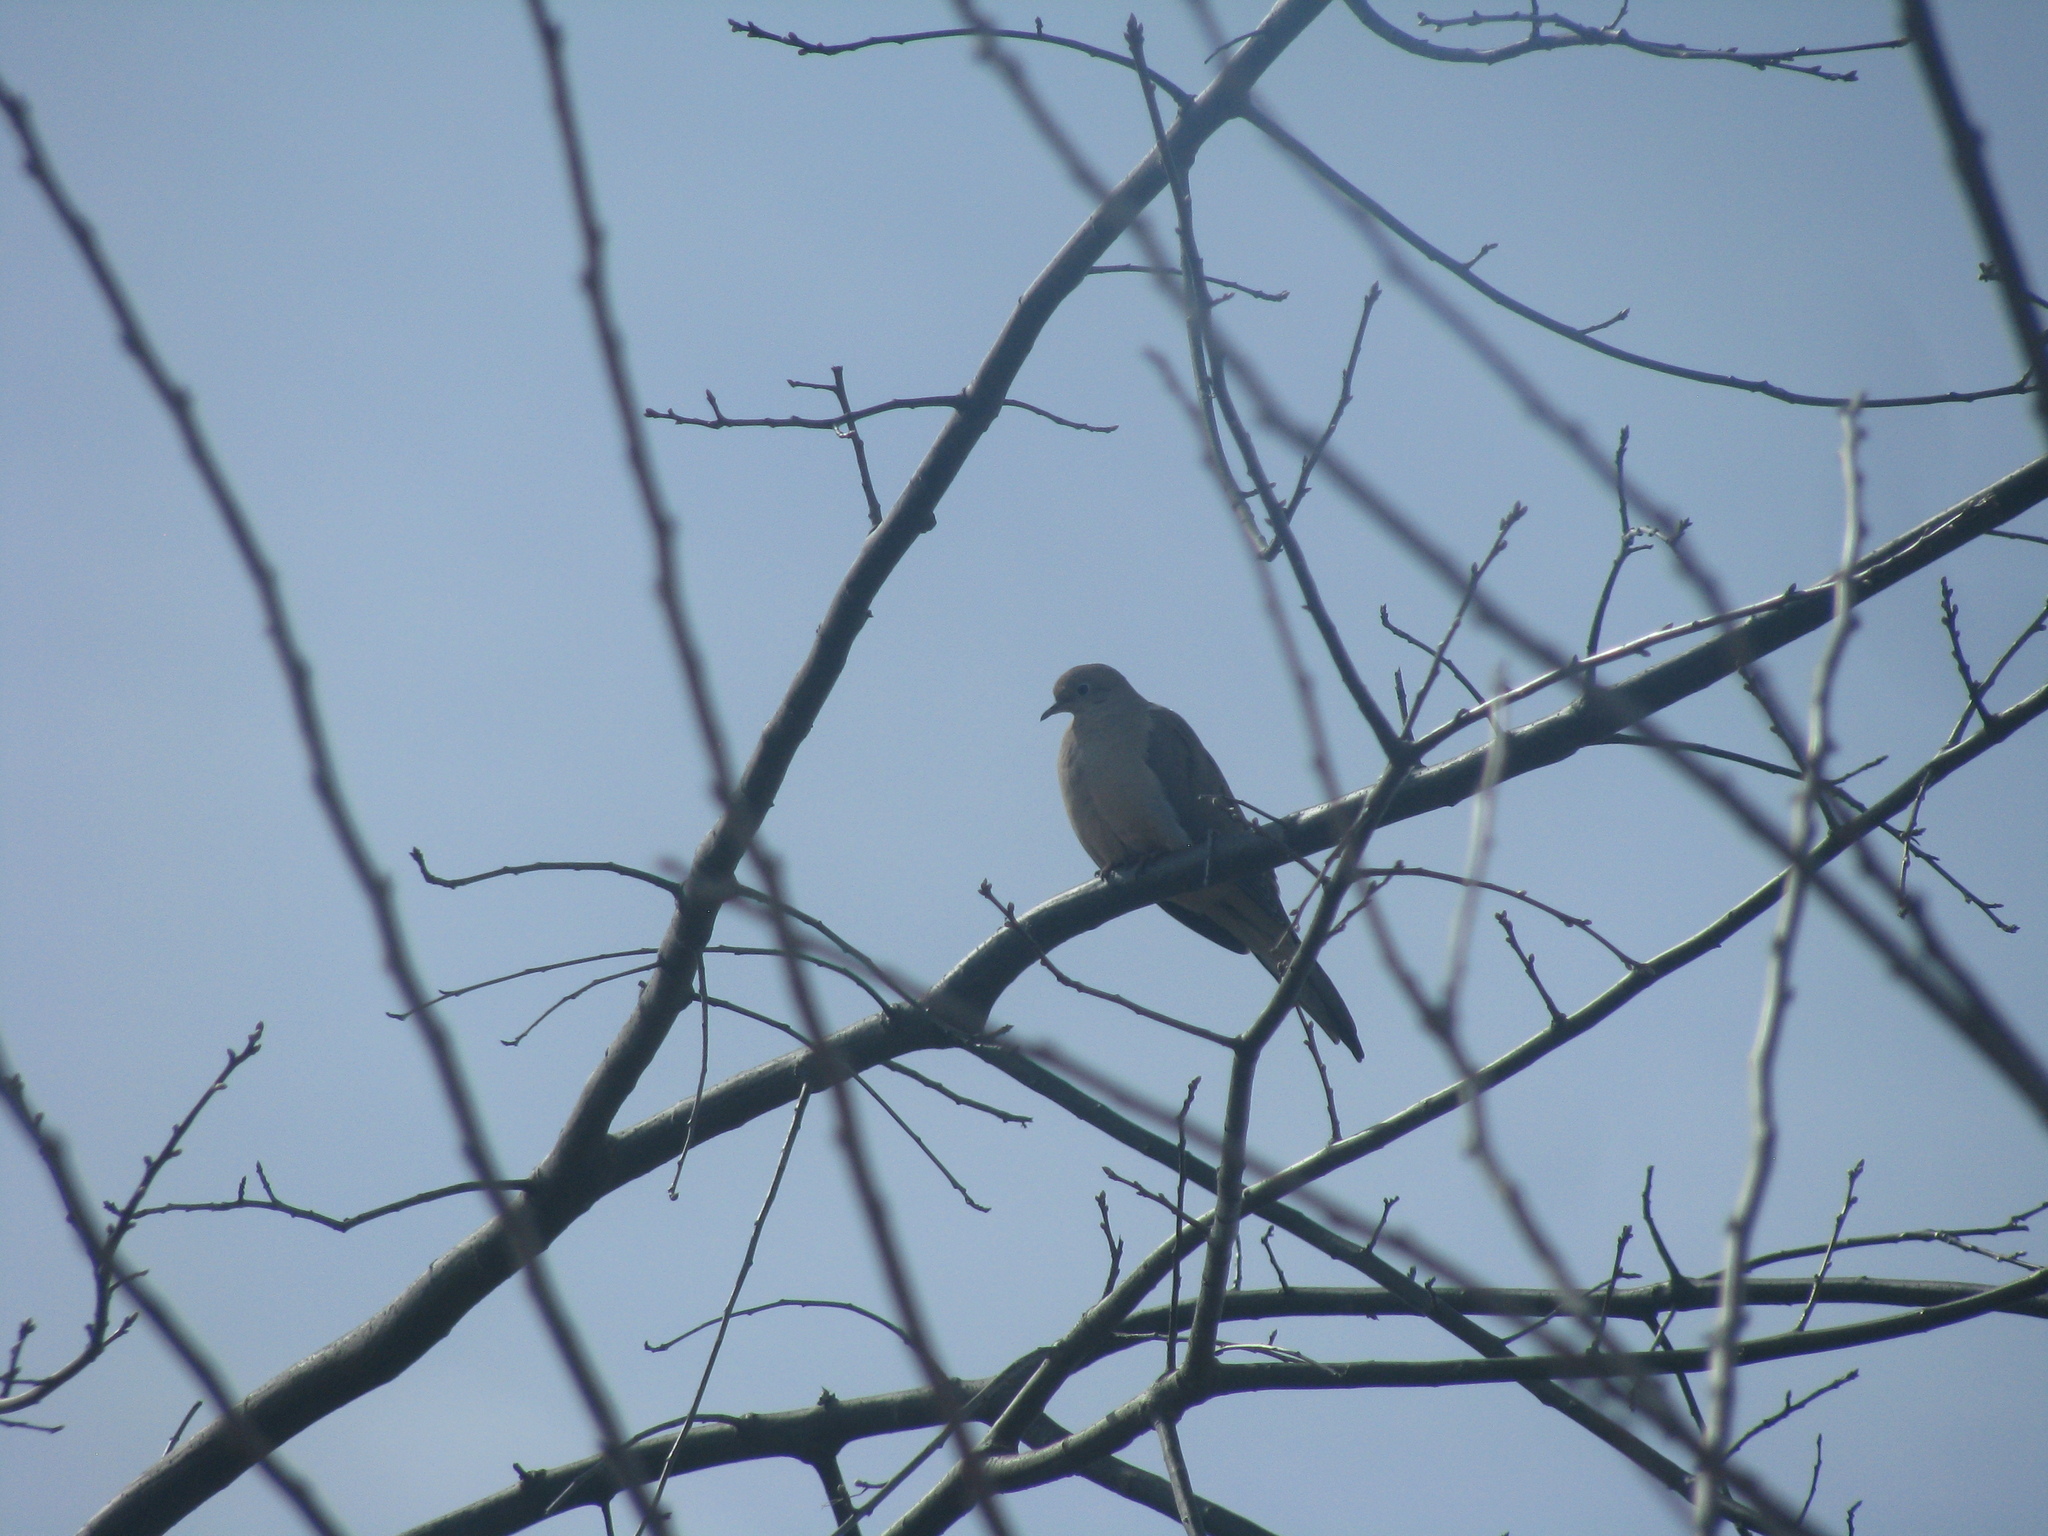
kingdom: Animalia
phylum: Chordata
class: Aves
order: Columbiformes
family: Columbidae
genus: Zenaida
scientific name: Zenaida macroura
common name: Mourning dove
